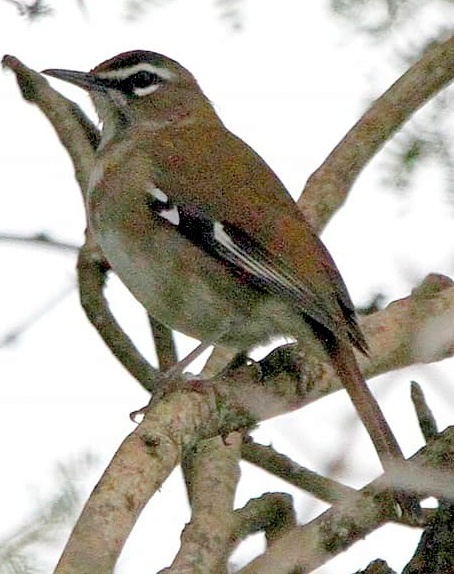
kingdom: Animalia
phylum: Chordata
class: Aves
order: Passeriformes
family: Muscicapidae
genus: Erythropygia
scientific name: Erythropygia signata
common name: Brown scrub robin
